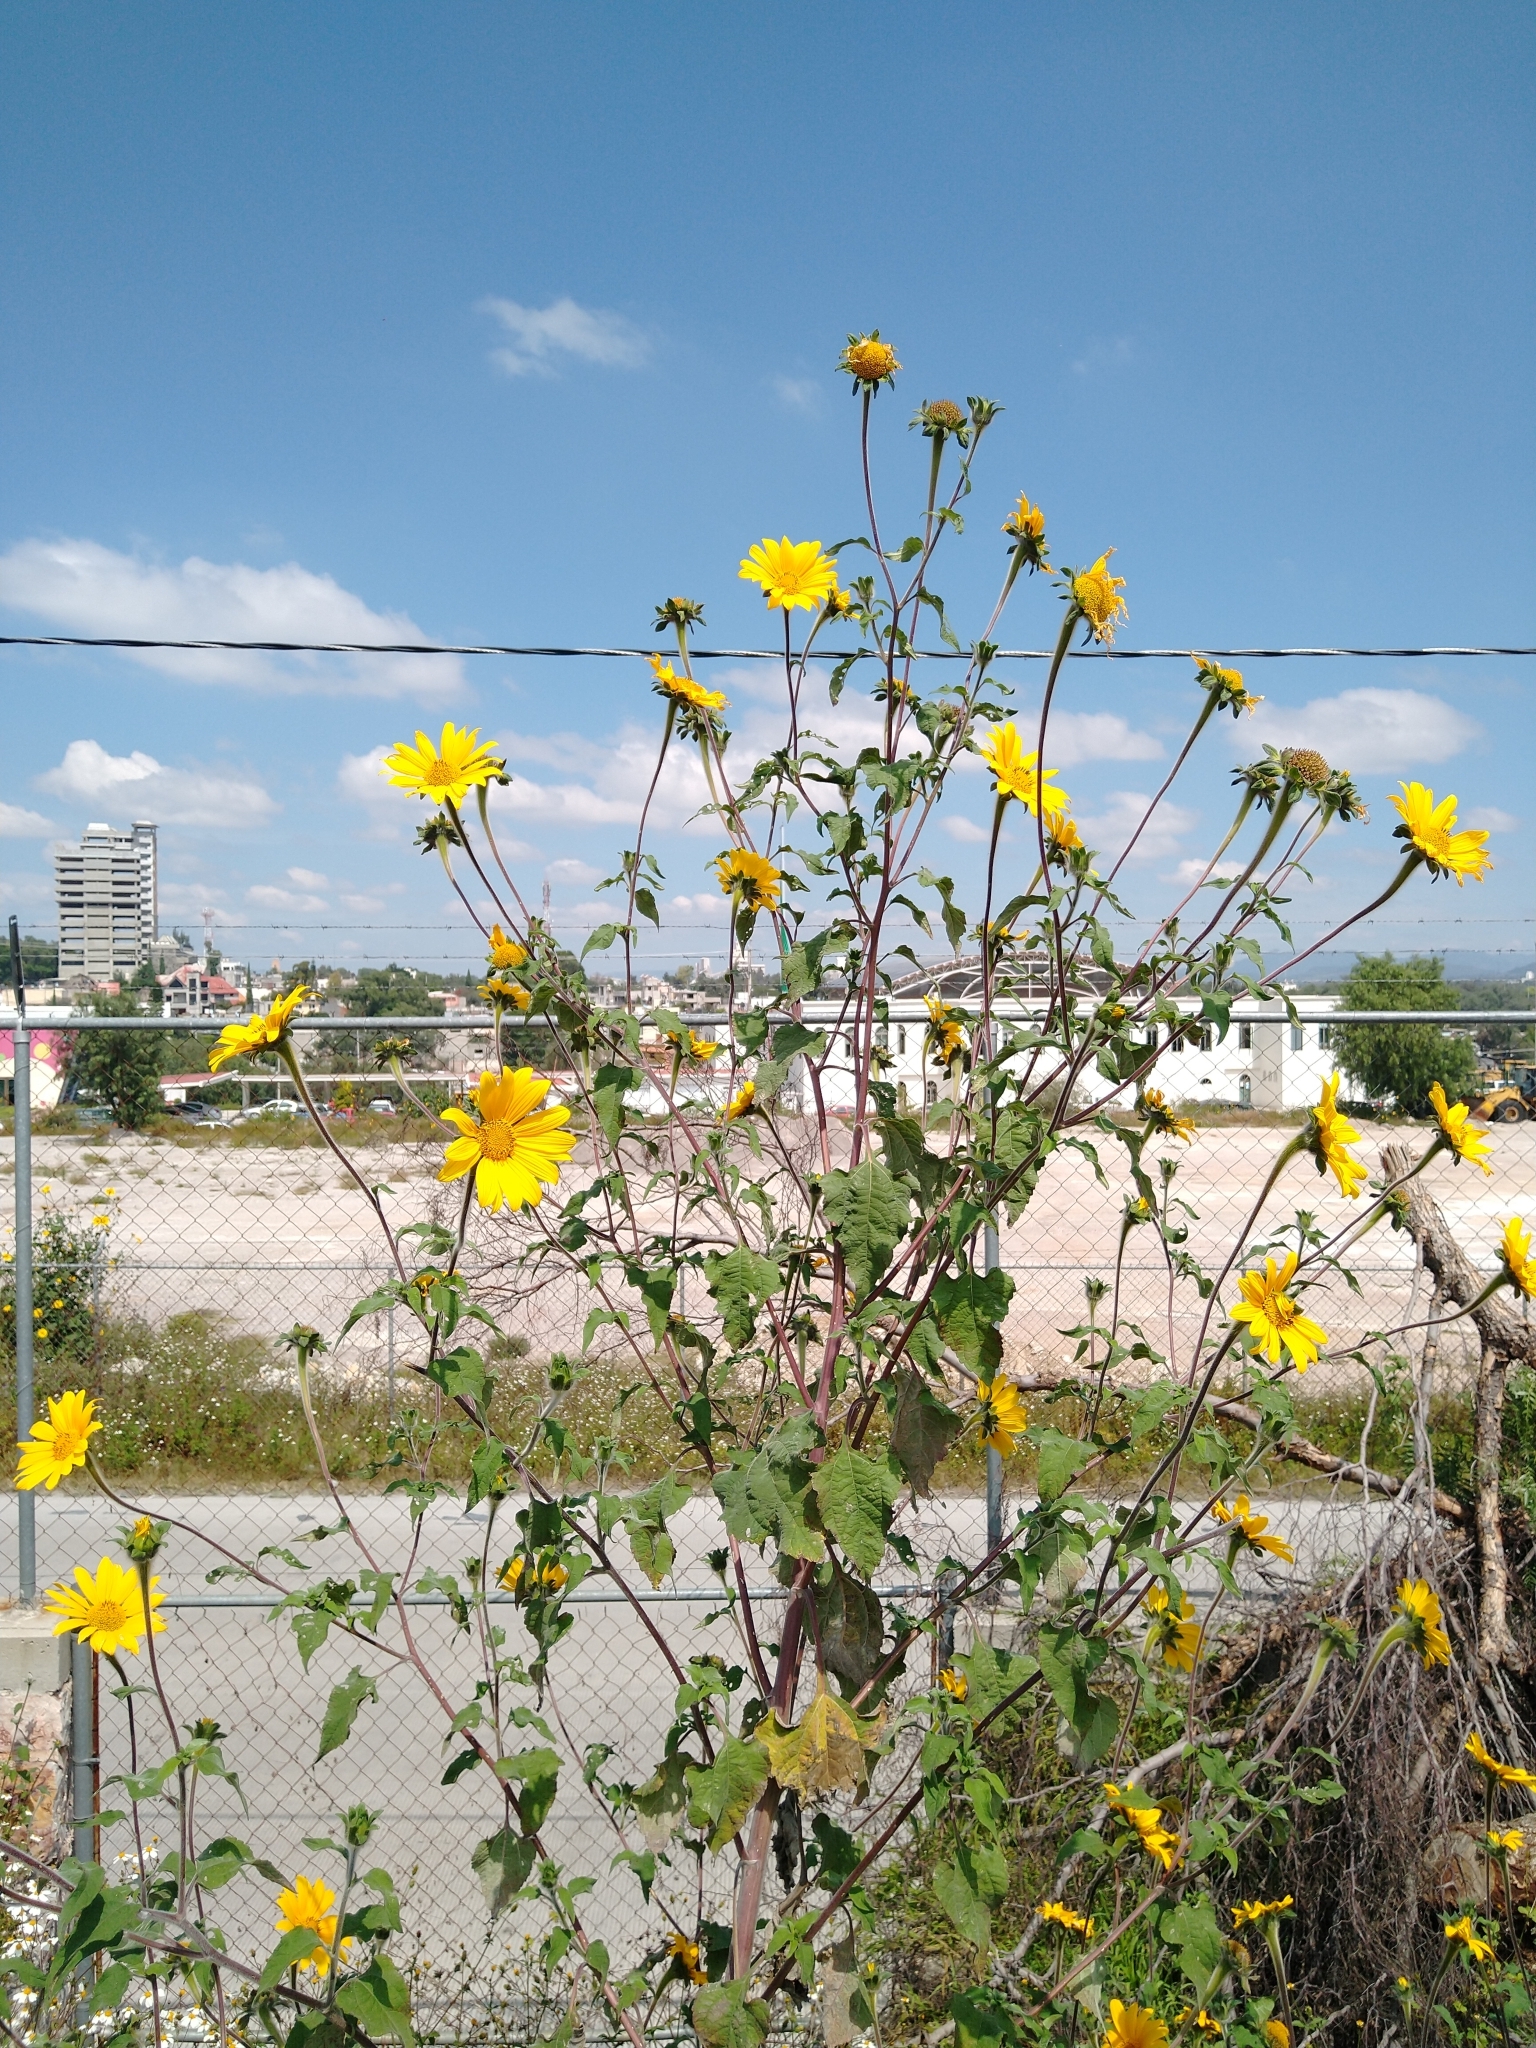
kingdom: Plantae
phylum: Tracheophyta
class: Magnoliopsida
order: Asterales
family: Asteraceae
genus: Tithonia
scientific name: Tithonia tubaeformis
